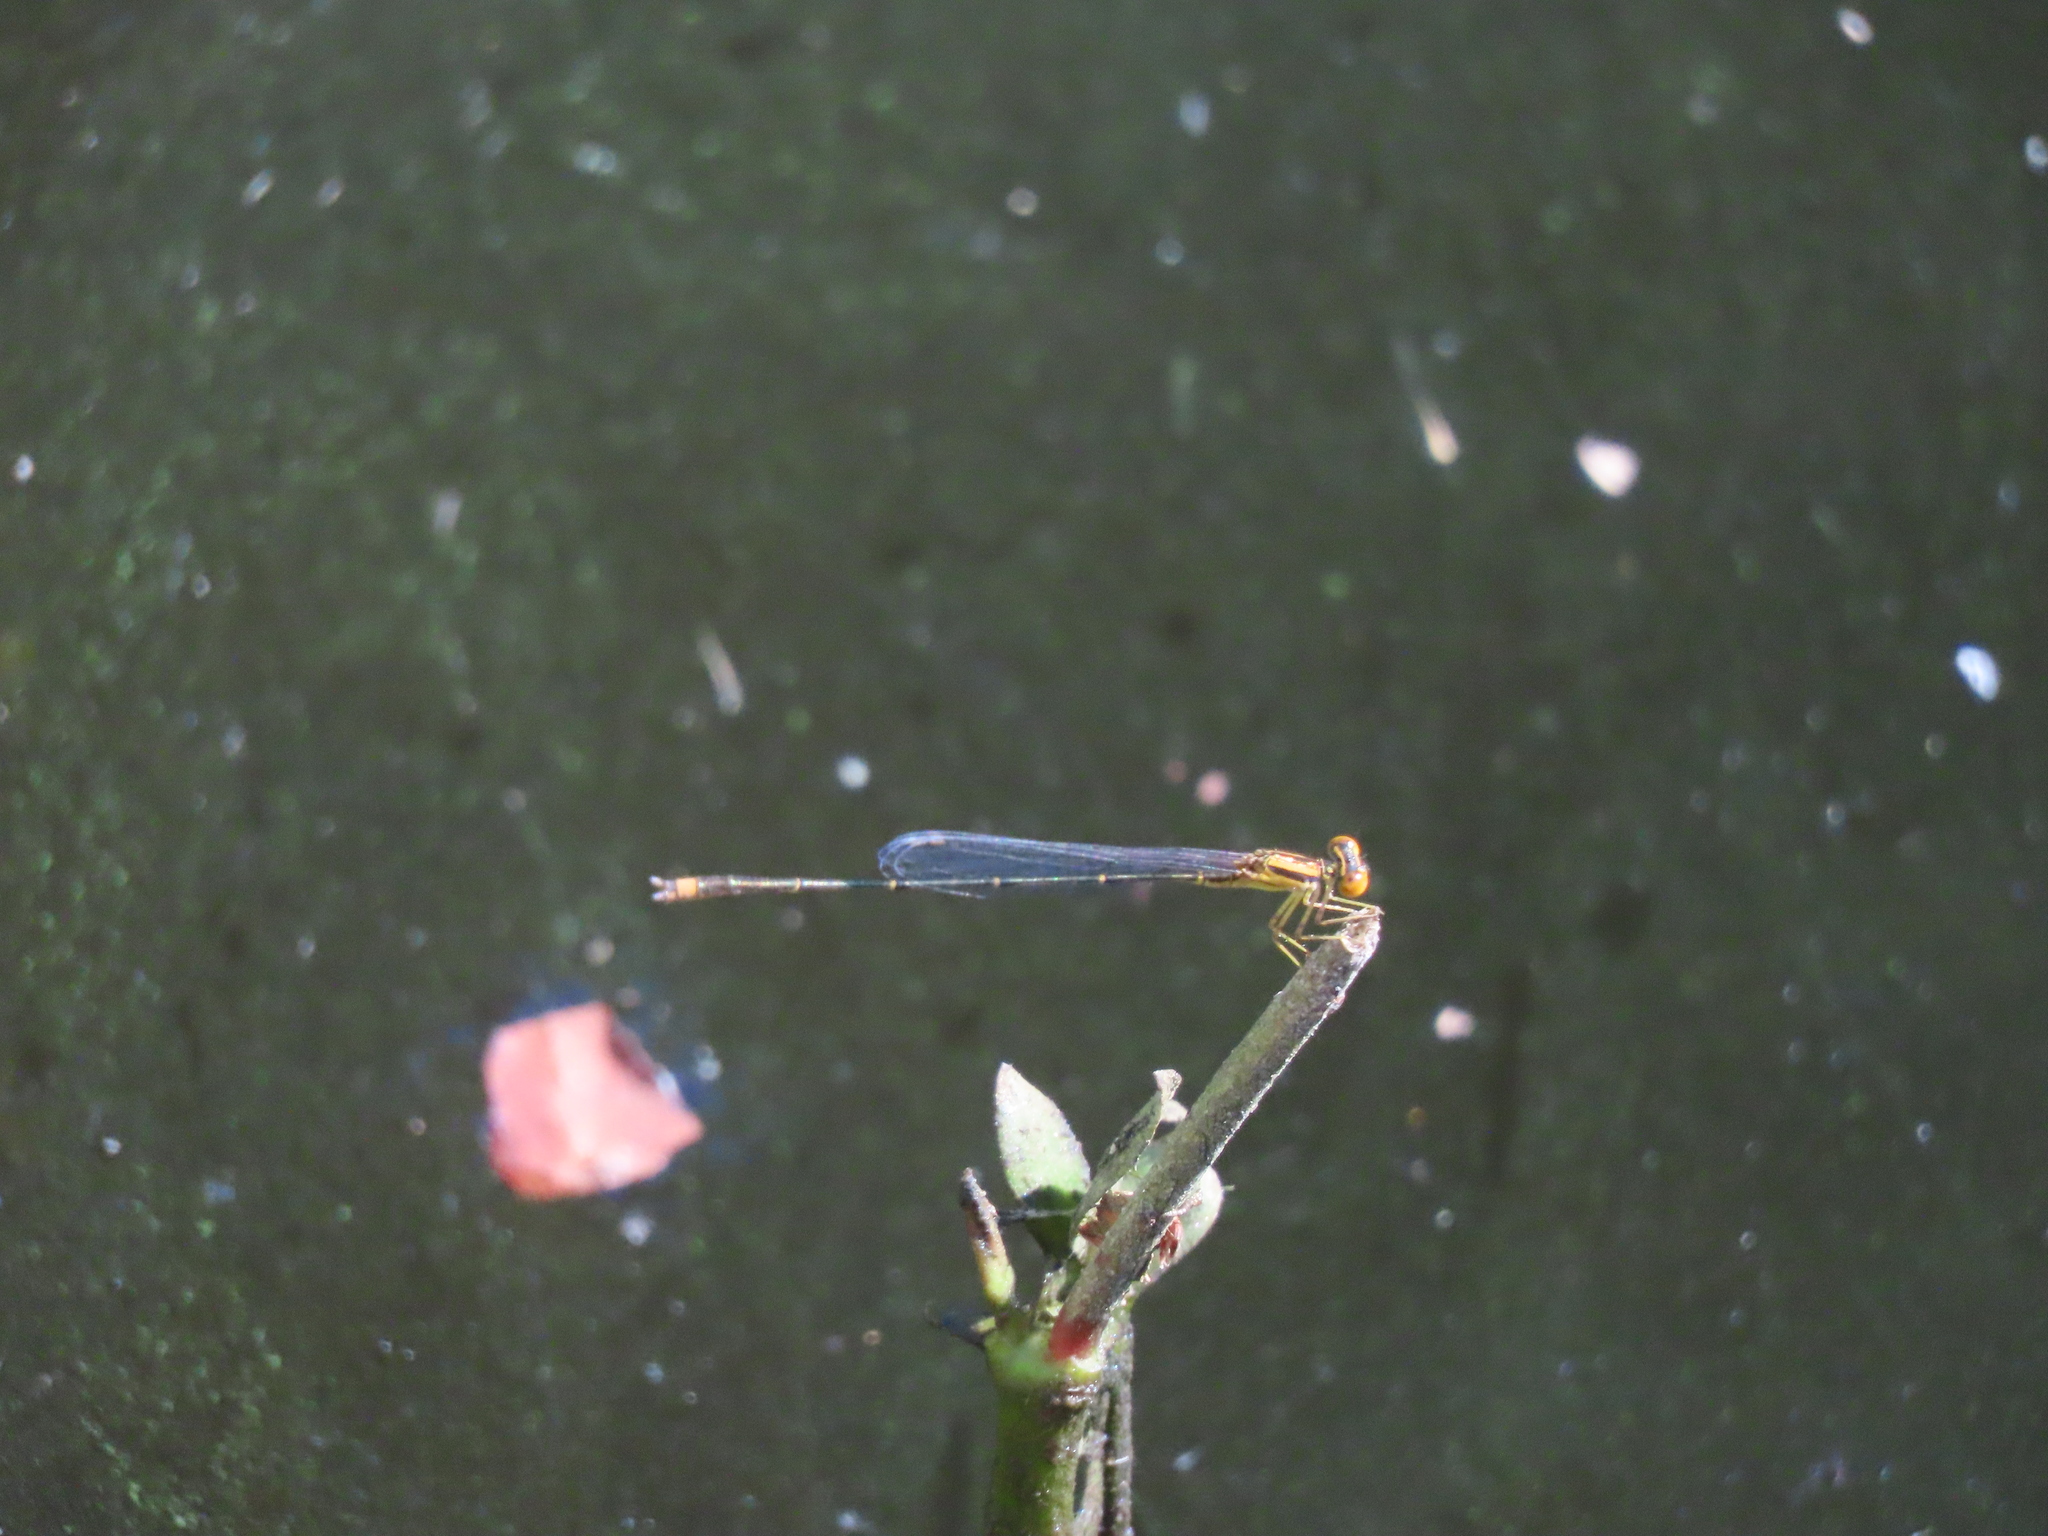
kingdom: Animalia
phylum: Arthropoda
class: Insecta
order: Odonata
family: Coenagrionidae
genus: Enallagma
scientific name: Enallagma signatum
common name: Orange bluet
